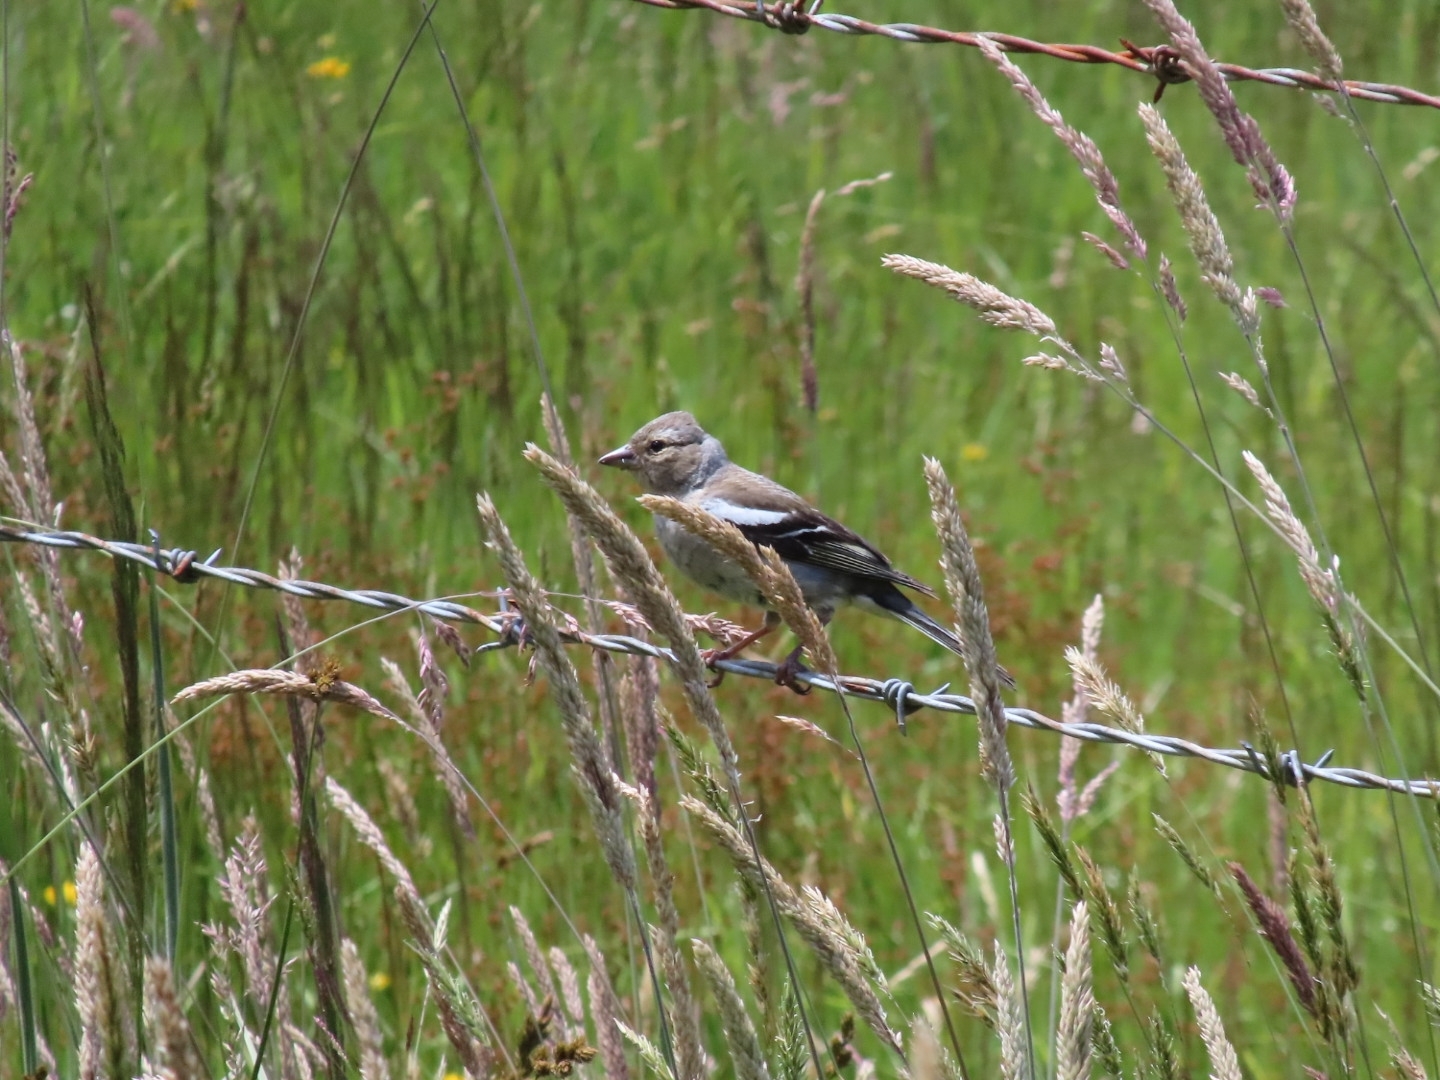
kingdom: Animalia
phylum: Chordata
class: Aves
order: Passeriformes
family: Fringillidae
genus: Fringilla
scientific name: Fringilla coelebs
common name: Common chaffinch
